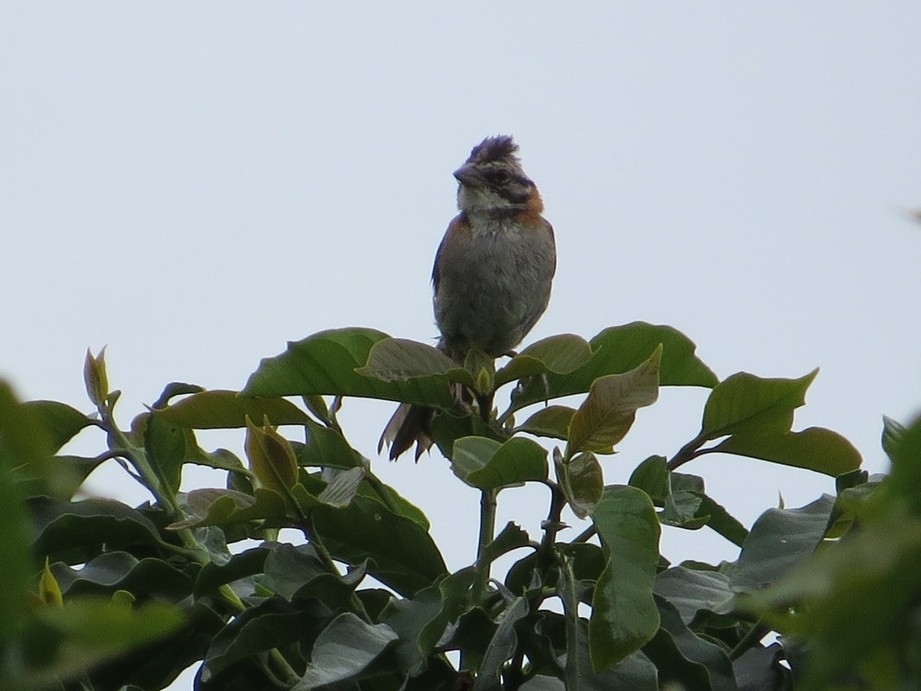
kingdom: Animalia
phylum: Chordata
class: Aves
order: Passeriformes
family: Passerellidae
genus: Zonotrichia
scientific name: Zonotrichia capensis
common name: Rufous-collared sparrow
